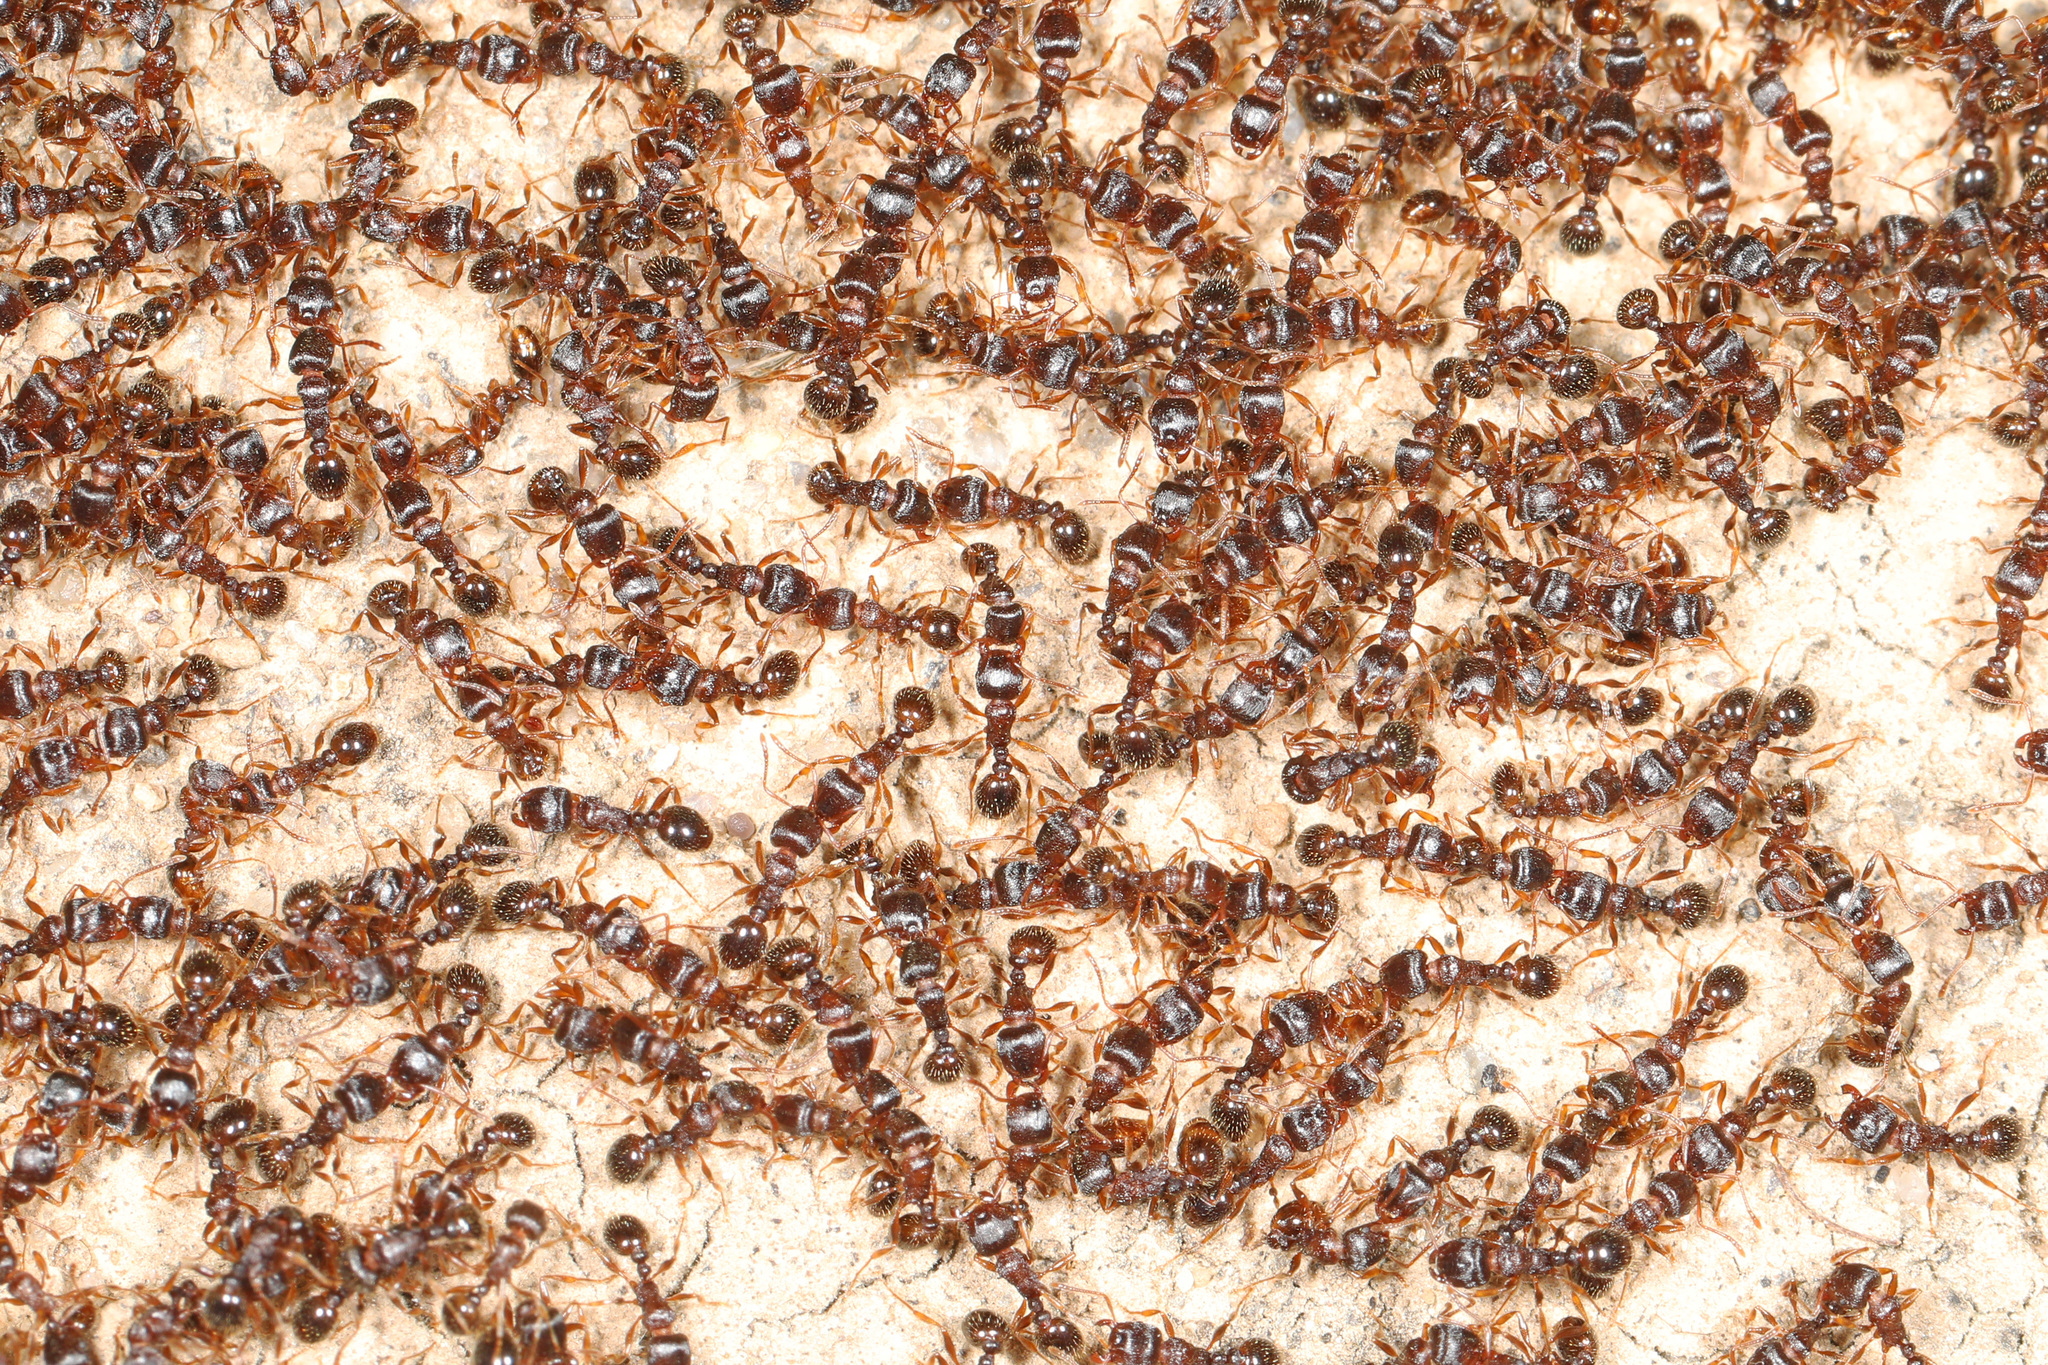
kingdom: Animalia
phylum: Arthropoda
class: Insecta
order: Hymenoptera
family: Formicidae
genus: Tetramorium
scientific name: Tetramorium immigrans
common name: Pavement ant
